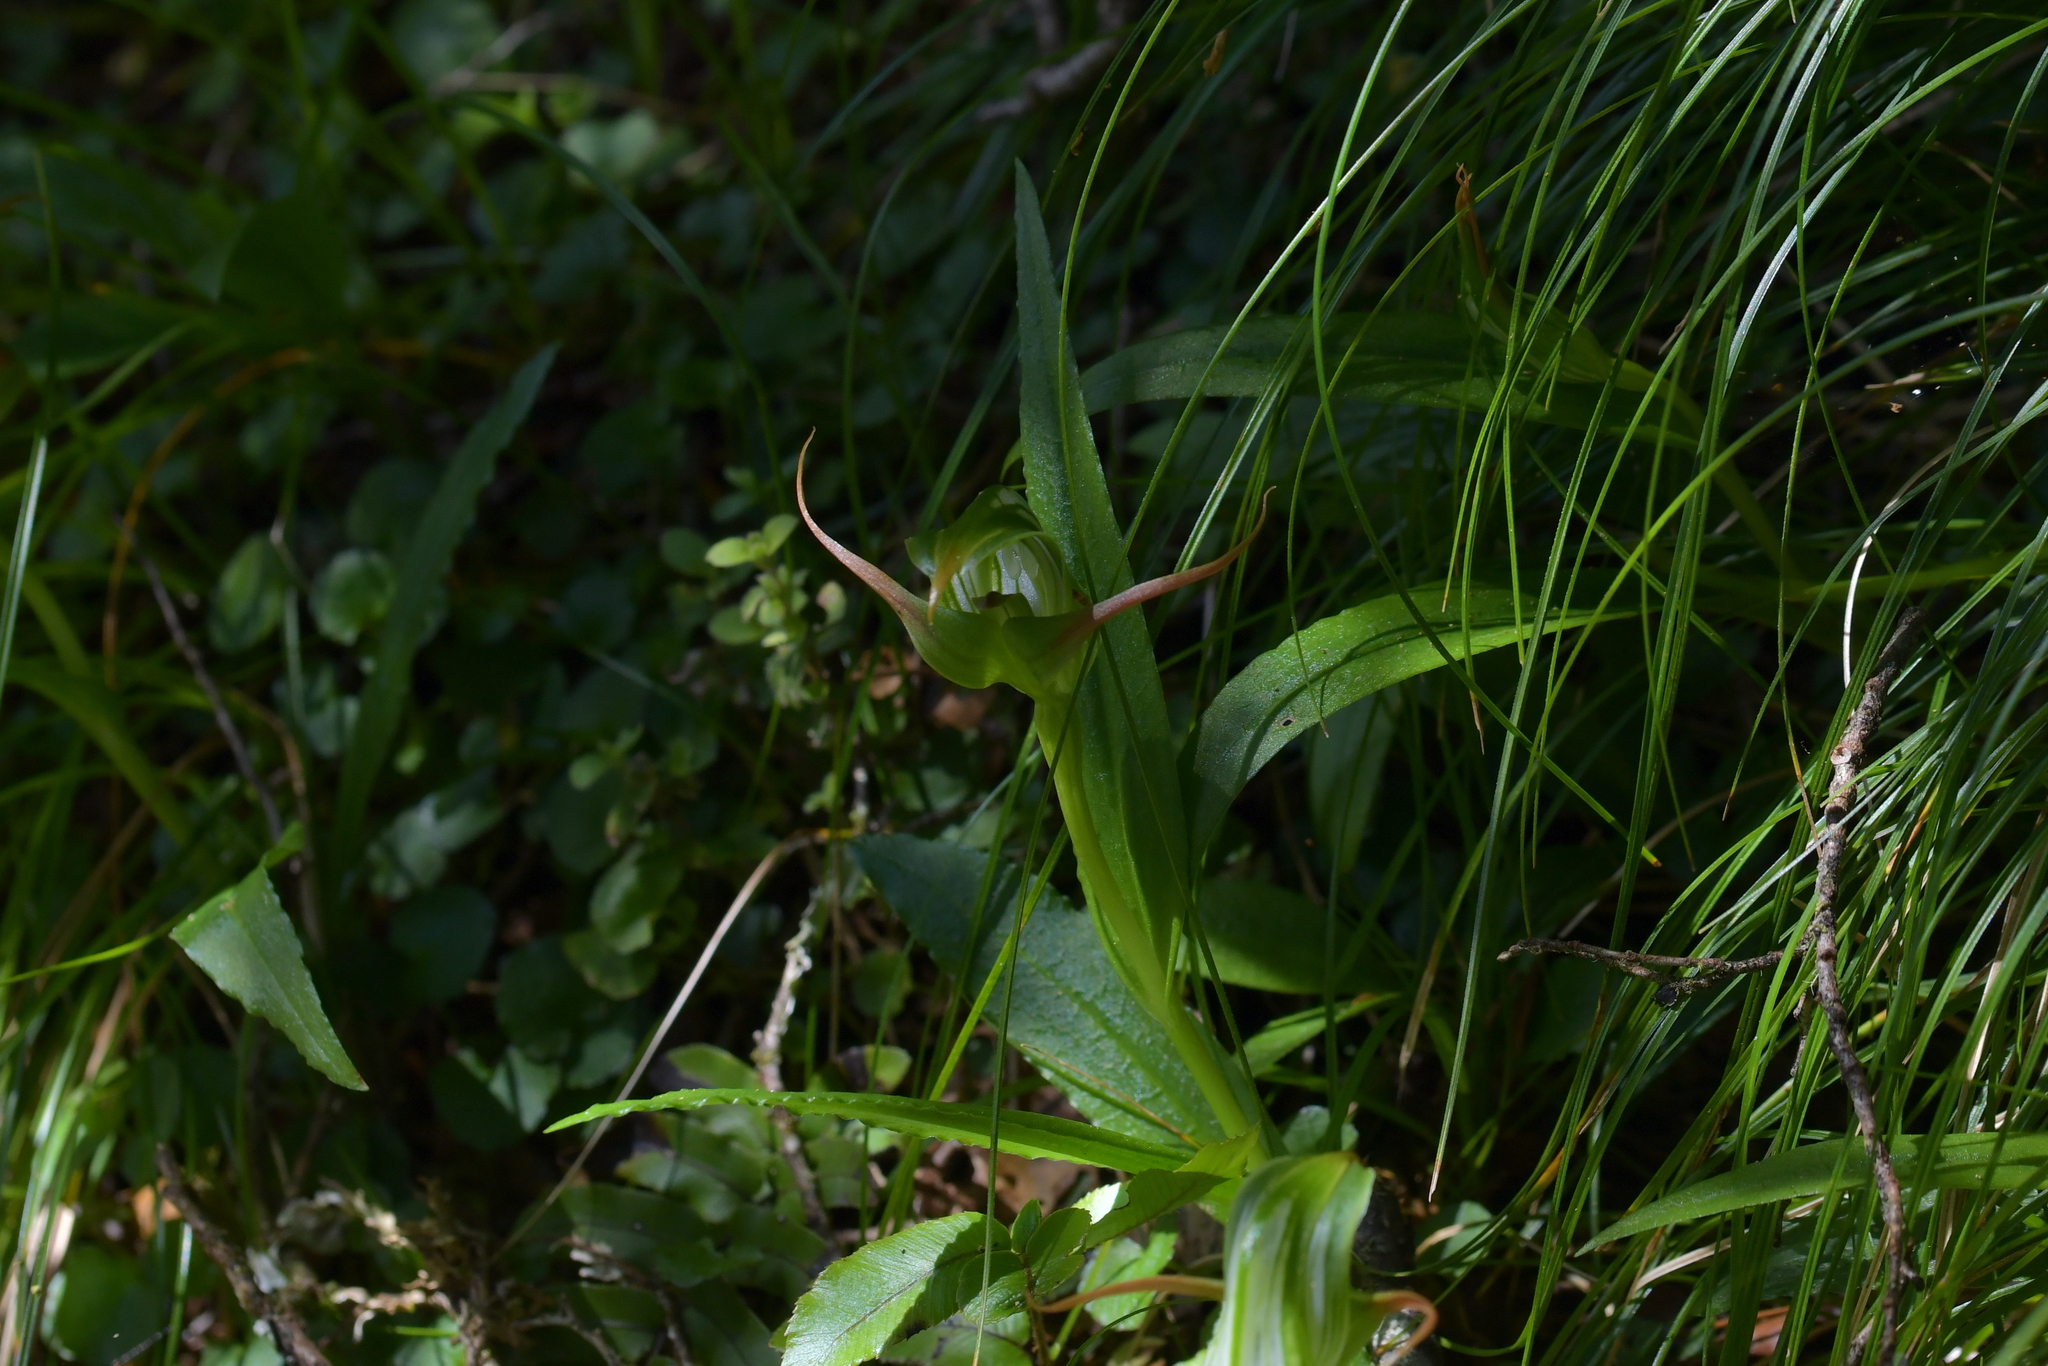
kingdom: Plantae
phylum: Tracheophyta
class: Liliopsida
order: Asparagales
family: Orchidaceae
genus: Pterostylis
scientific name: Pterostylis australis
